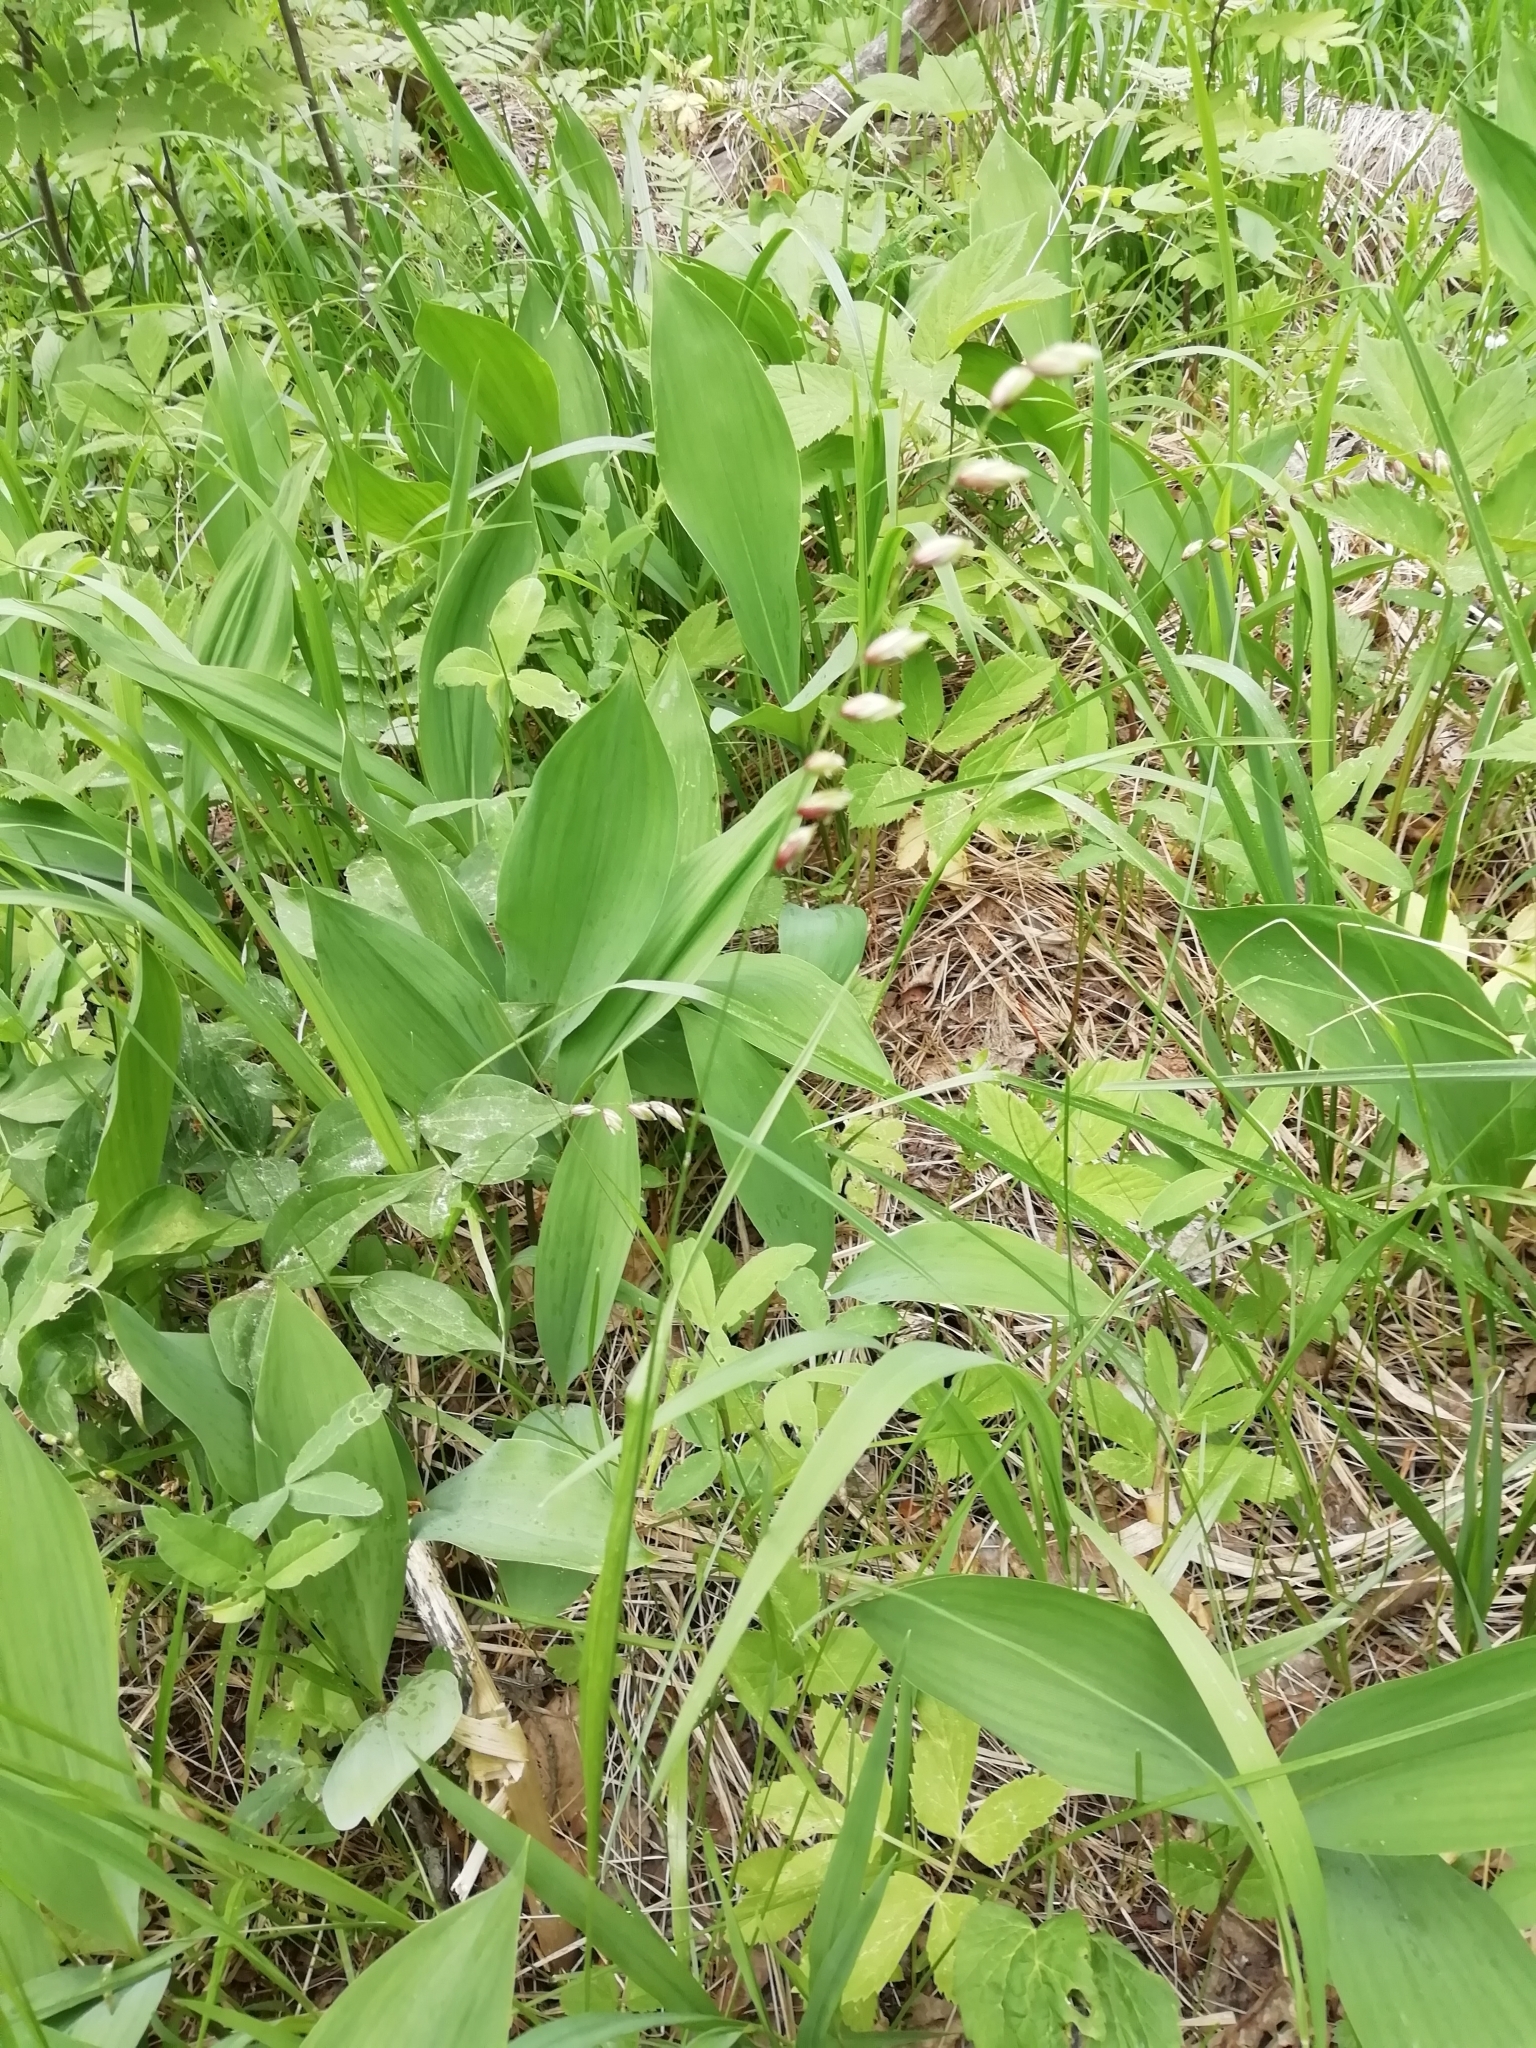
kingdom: Plantae
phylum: Tracheophyta
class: Liliopsida
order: Poales
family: Poaceae
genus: Melica
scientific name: Melica nutans
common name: Mountain melick
